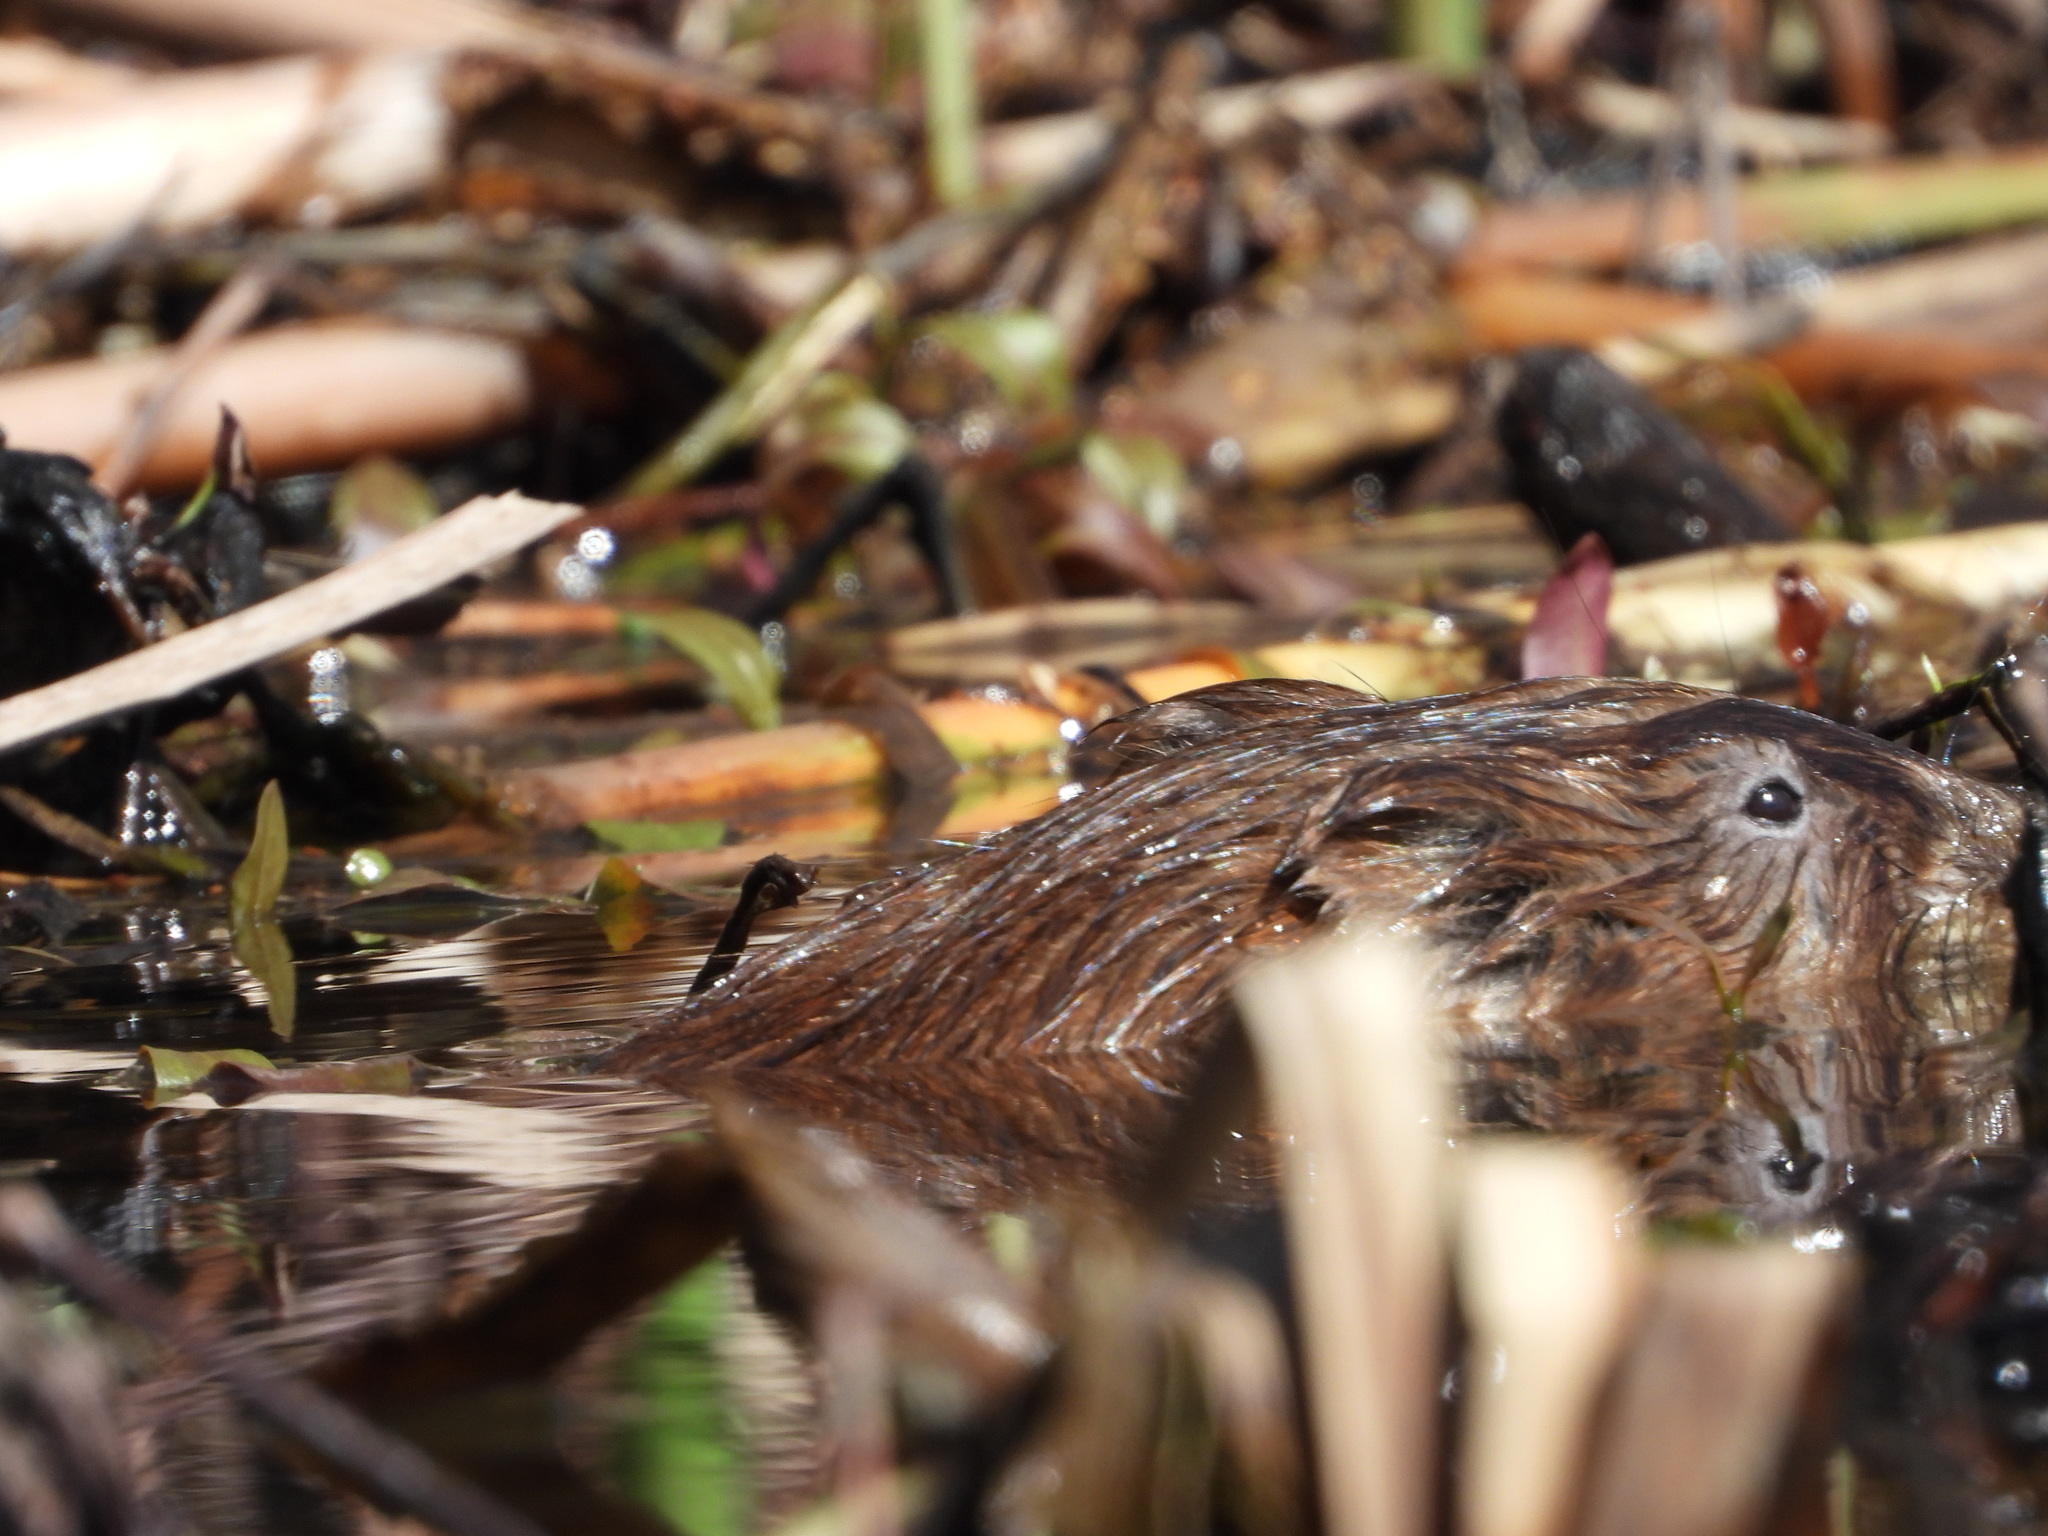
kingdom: Animalia
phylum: Chordata
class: Mammalia
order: Rodentia
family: Cricetidae
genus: Ondatra
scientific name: Ondatra zibethicus
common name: Muskrat
